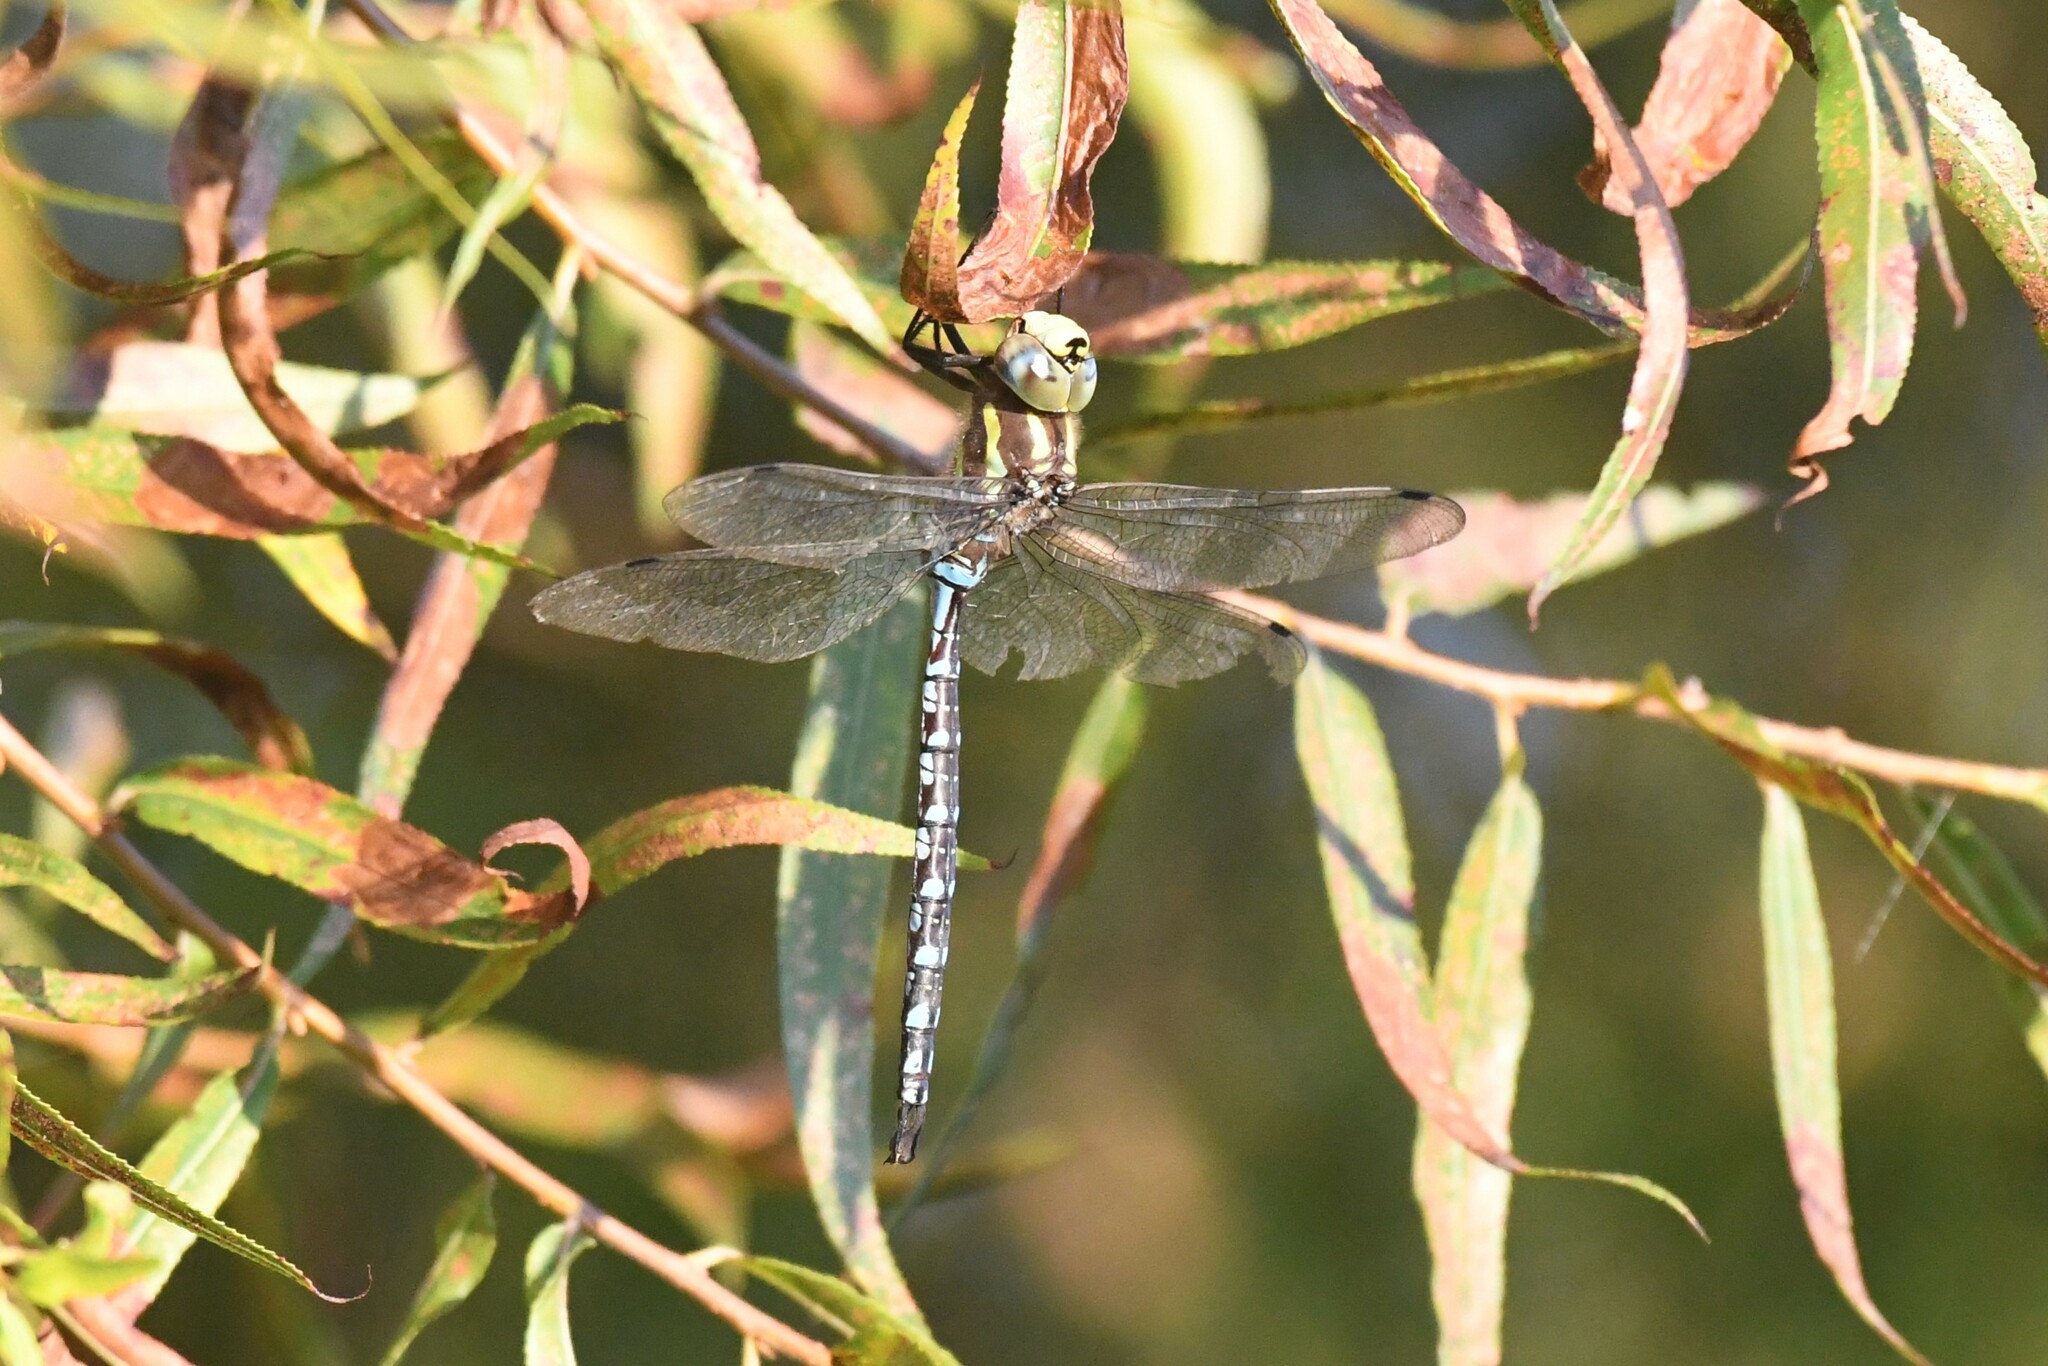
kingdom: Animalia
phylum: Arthropoda
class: Insecta
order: Odonata
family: Aeshnidae
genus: Aeshna
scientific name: Aeshna constricta
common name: Lance-tipped darner
